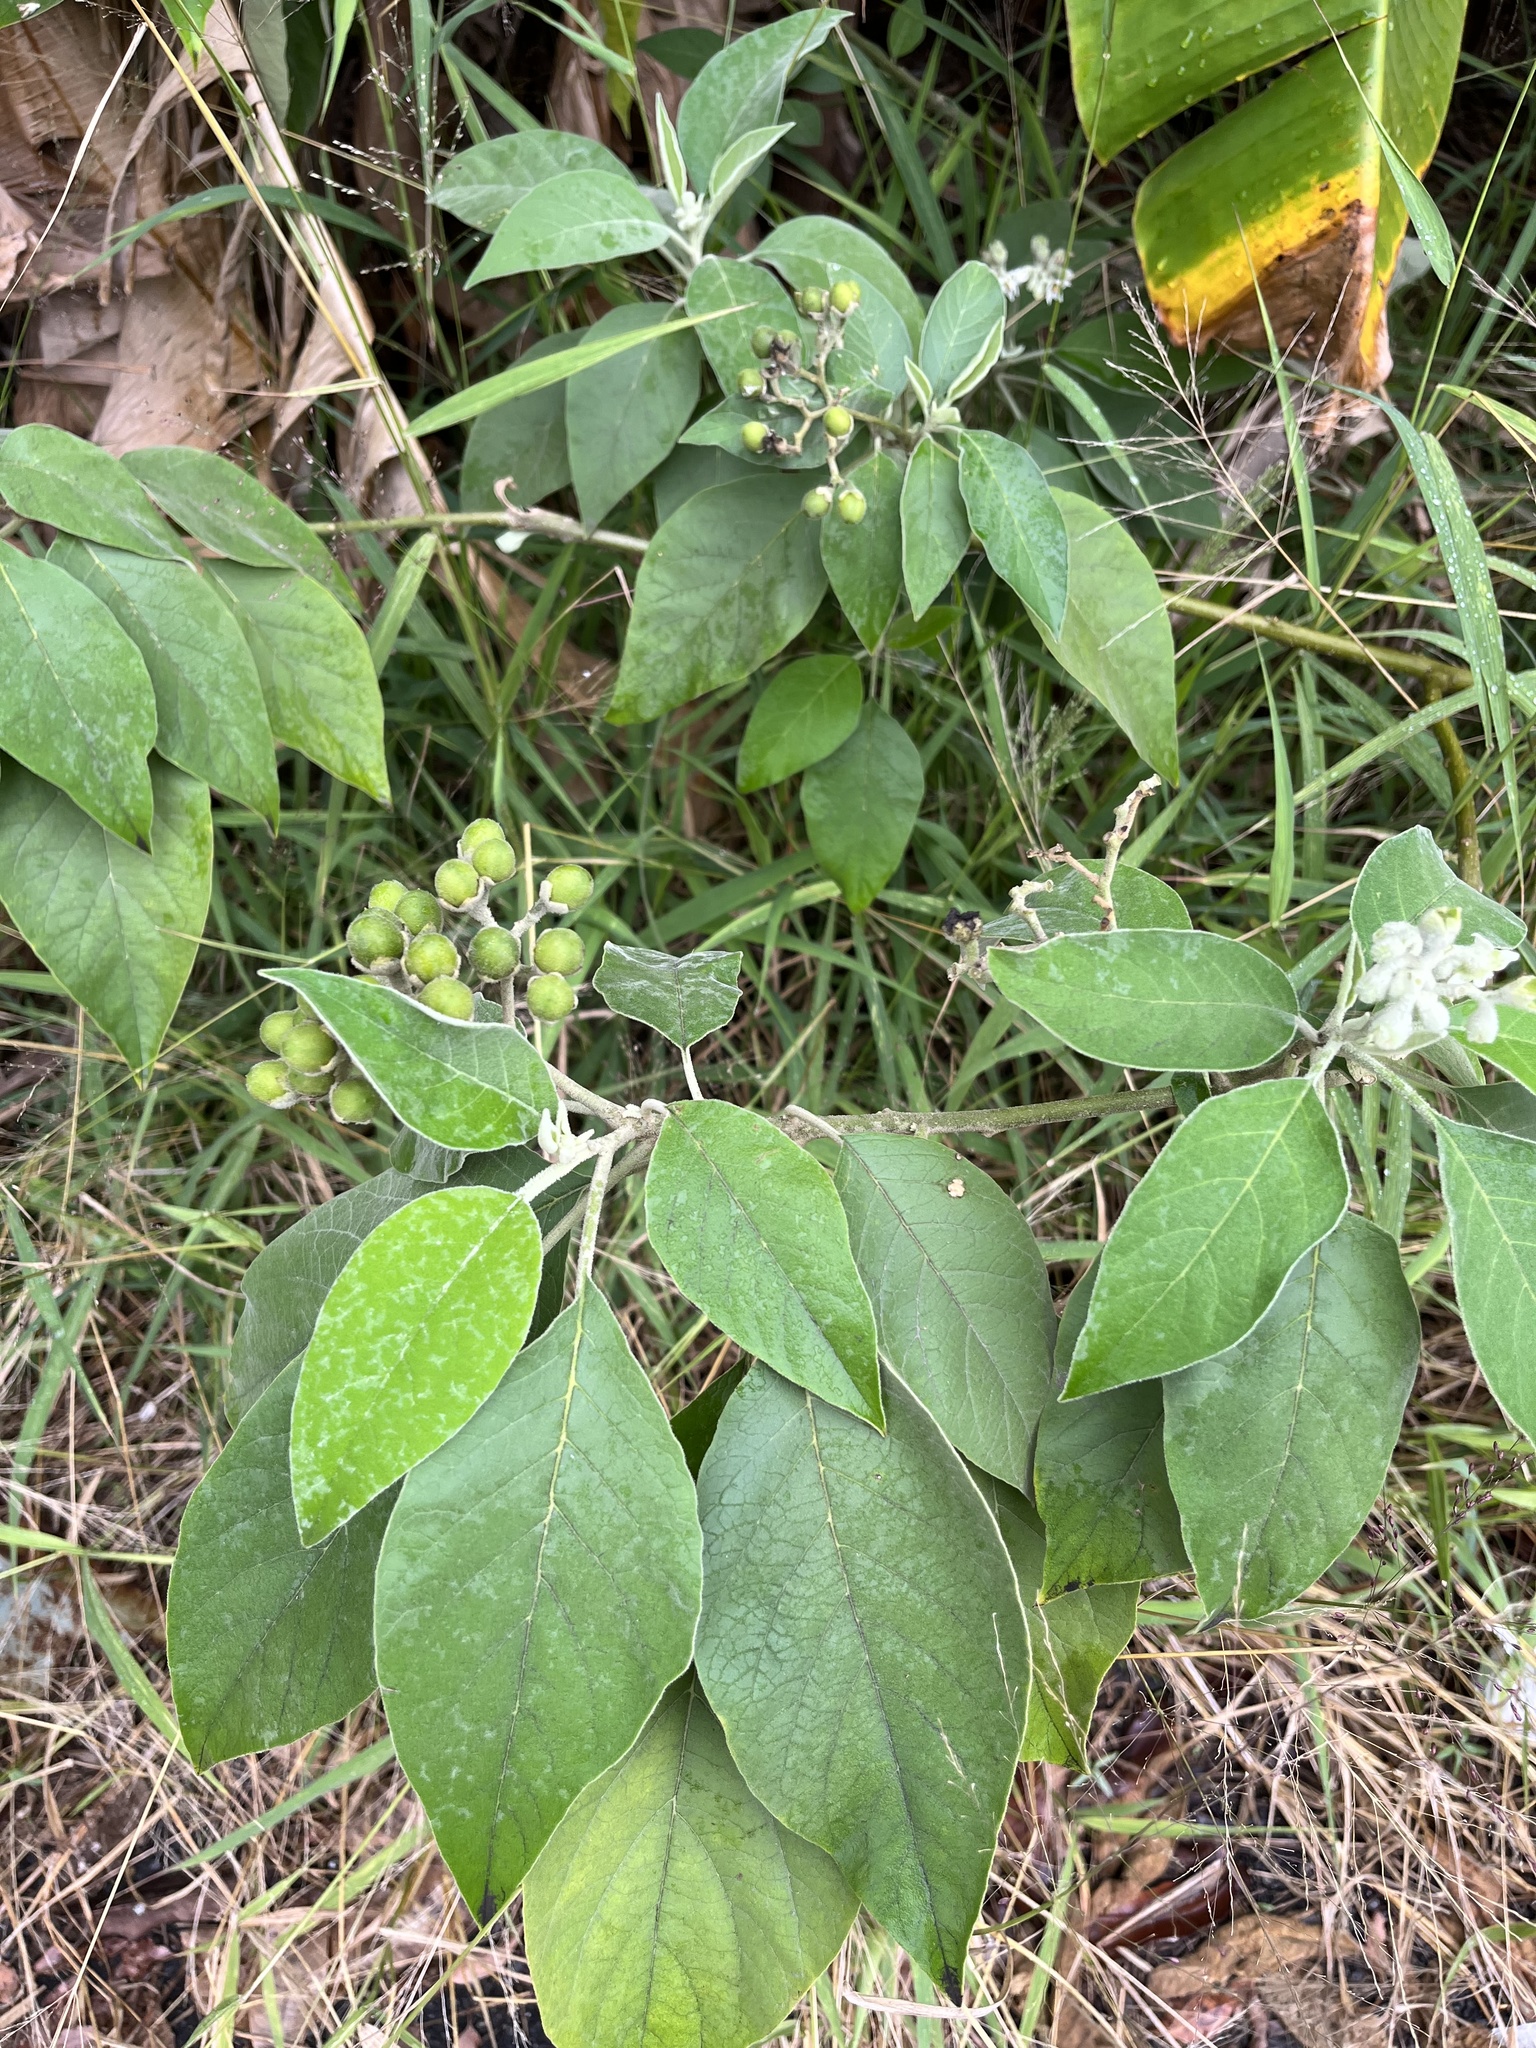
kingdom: Plantae
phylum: Tracheophyta
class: Magnoliopsida
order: Solanales
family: Solanaceae
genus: Solanum
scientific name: Solanum erianthum
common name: Tobacco-tree
